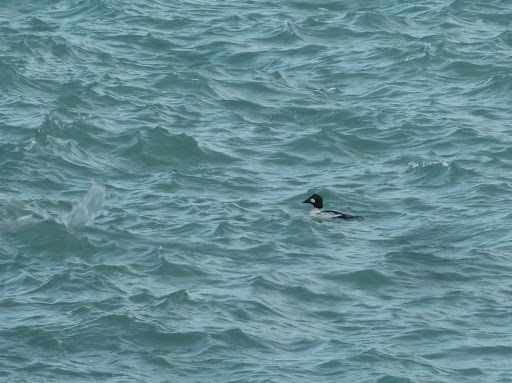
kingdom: Animalia
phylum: Chordata
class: Aves
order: Anseriformes
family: Anatidae
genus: Bucephala
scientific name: Bucephala clangula
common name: Common goldeneye
